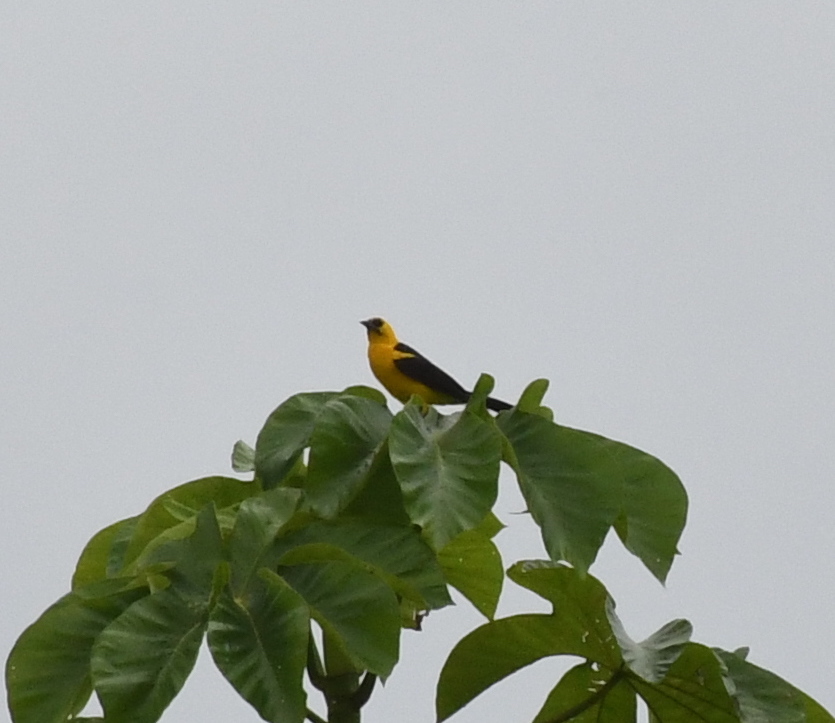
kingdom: Animalia
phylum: Chordata
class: Aves
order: Passeriformes
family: Icteridae
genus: Gymnomystax
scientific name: Gymnomystax mexicanus
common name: Oriole blackbird
